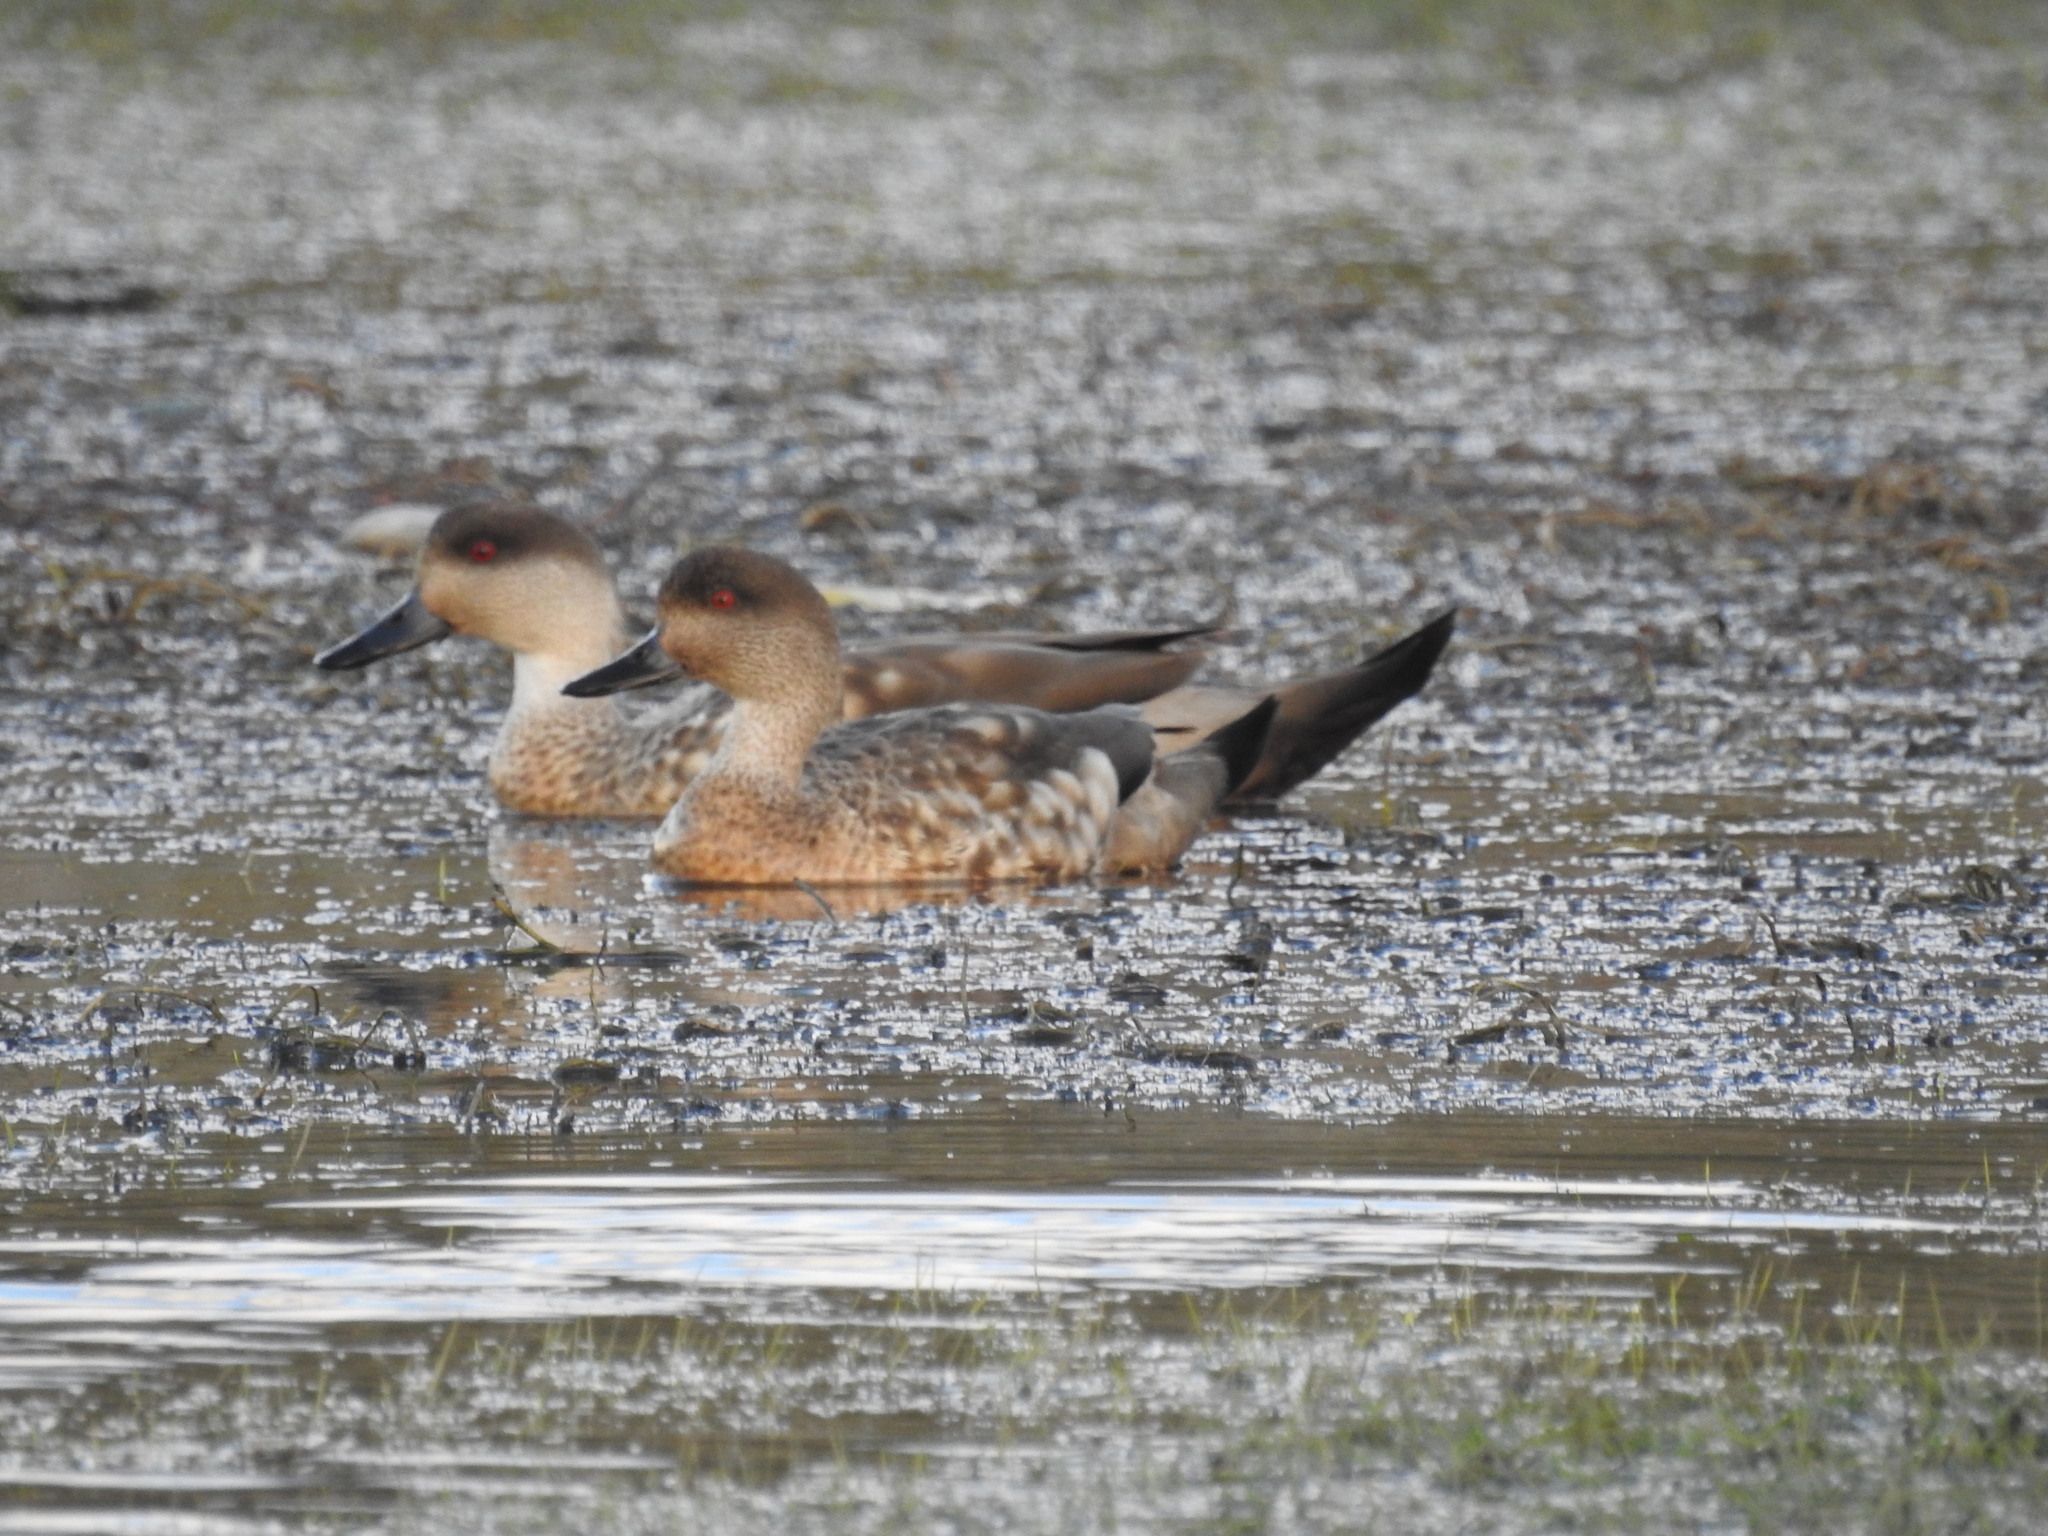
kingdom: Animalia
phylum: Chordata
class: Aves
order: Anseriformes
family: Anatidae
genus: Lophonetta
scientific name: Lophonetta specularioides
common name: Crested duck
